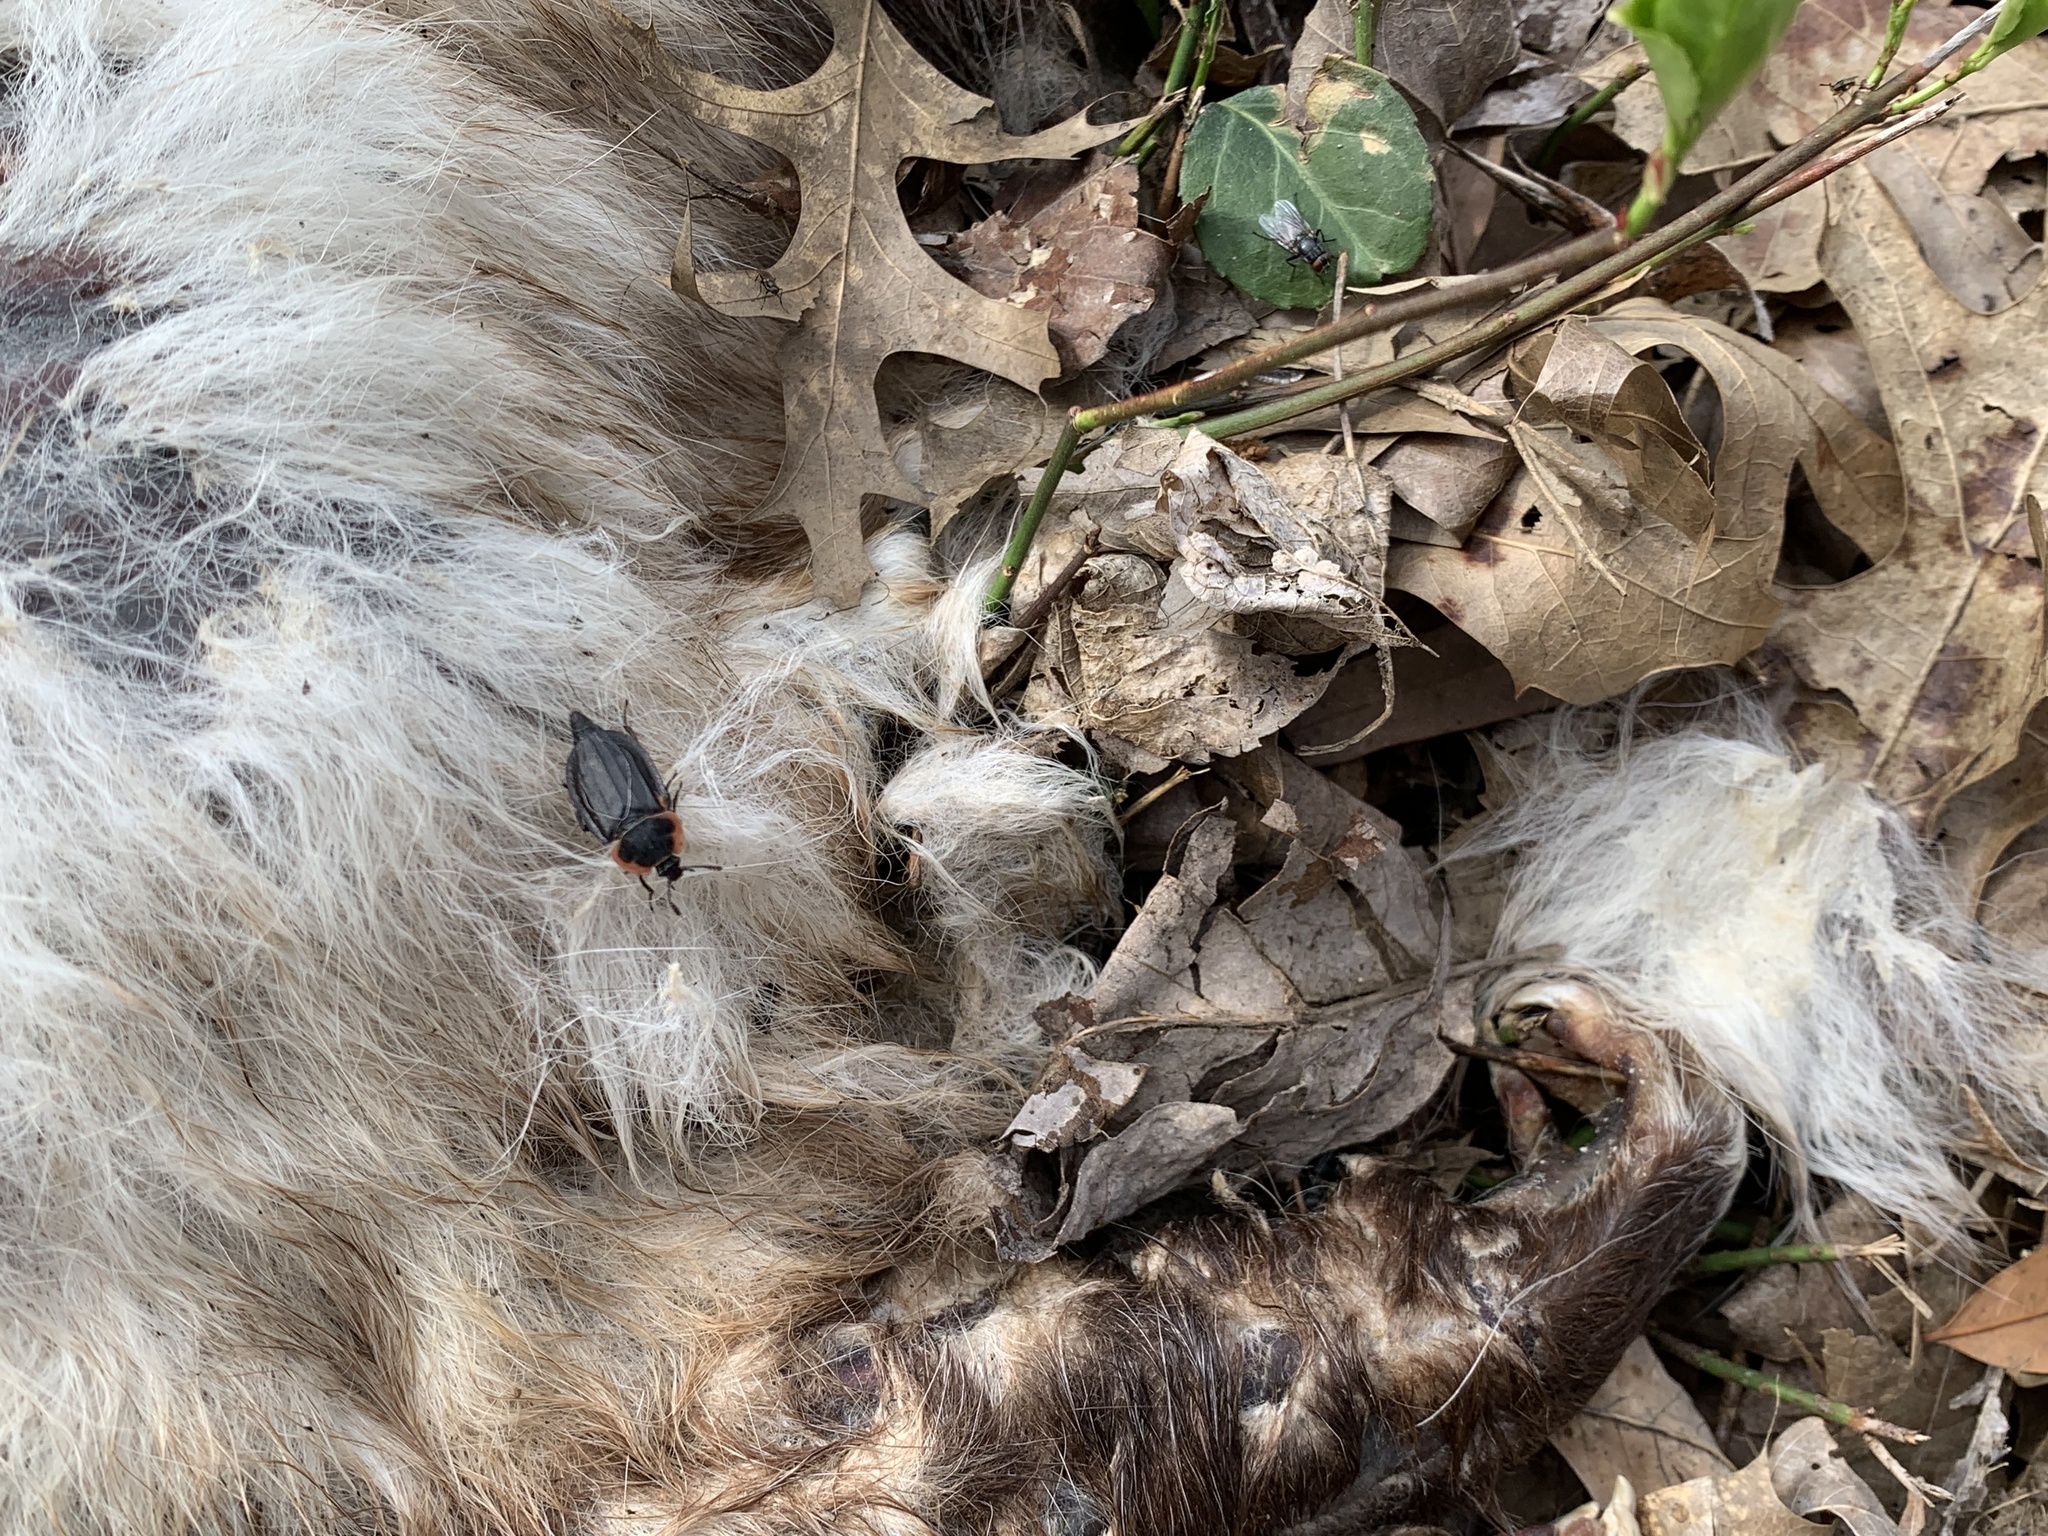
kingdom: Animalia
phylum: Arthropoda
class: Insecta
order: Coleoptera
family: Staphylinidae
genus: Oiceoptoma
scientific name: Oiceoptoma noveboracense
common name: Margined carrion beetle
